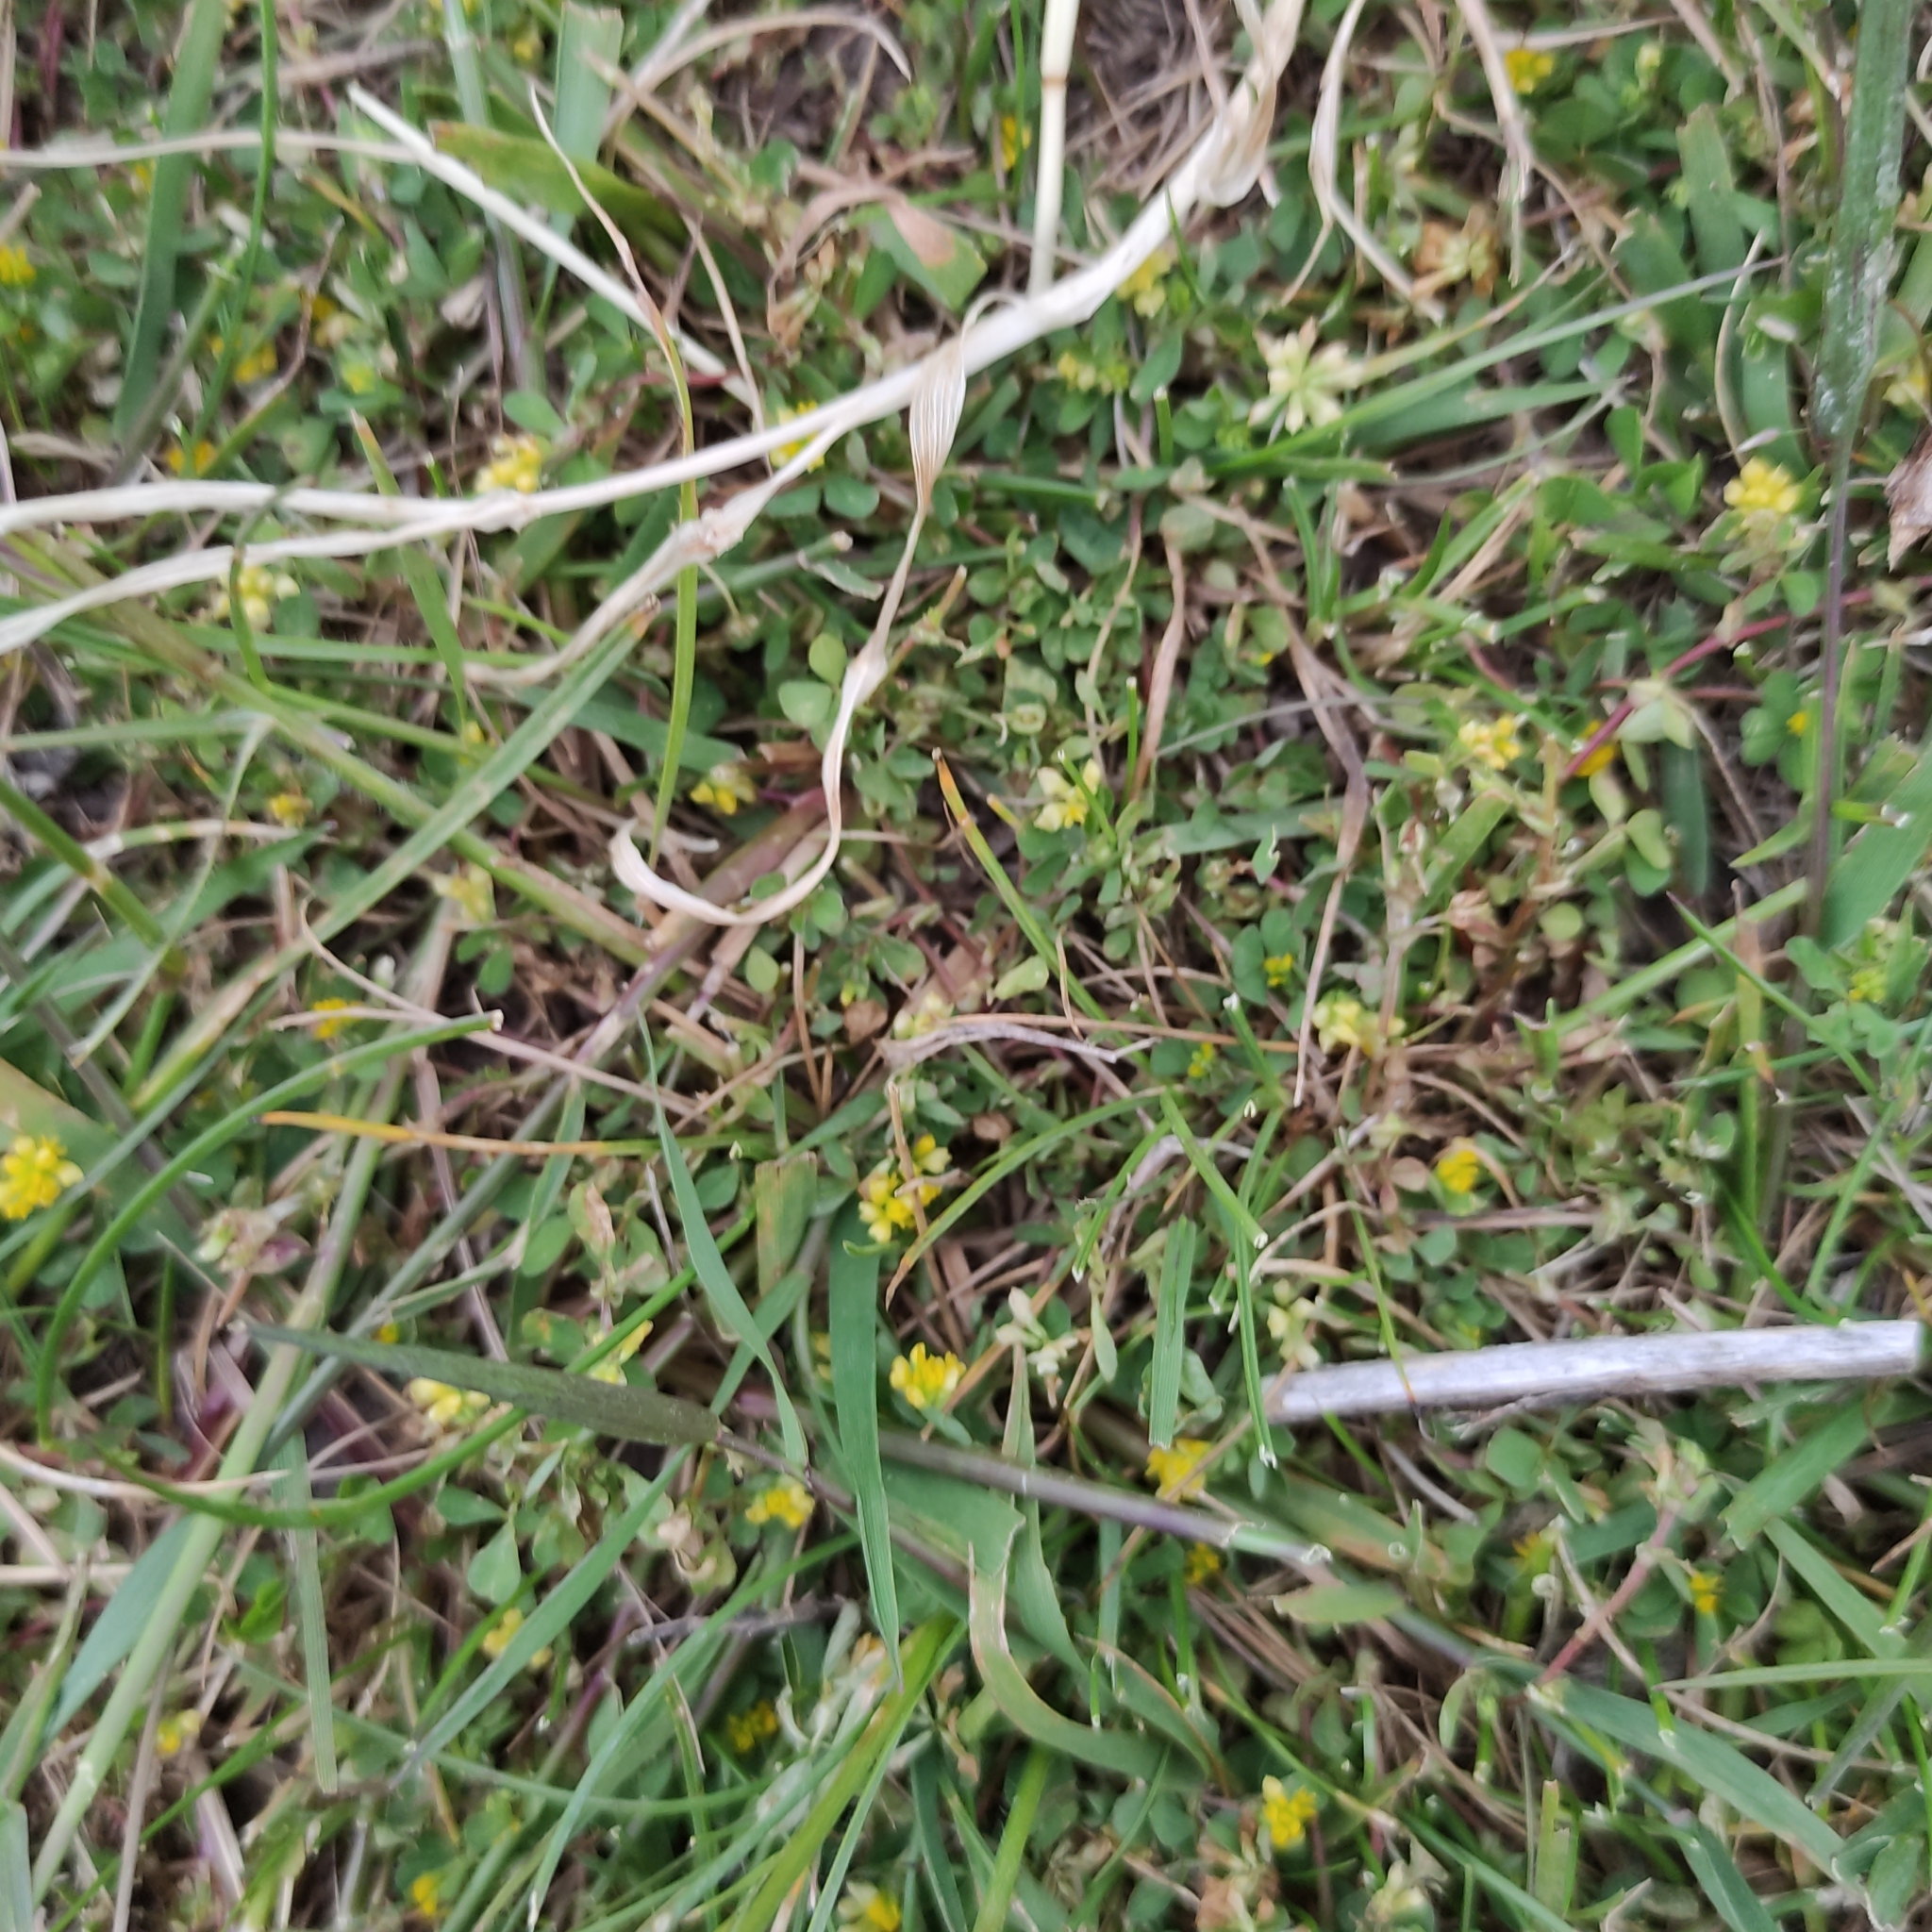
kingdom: Plantae
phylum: Tracheophyta
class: Magnoliopsida
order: Fabales
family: Fabaceae
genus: Trifolium
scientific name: Trifolium dubium
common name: Suckling clover
